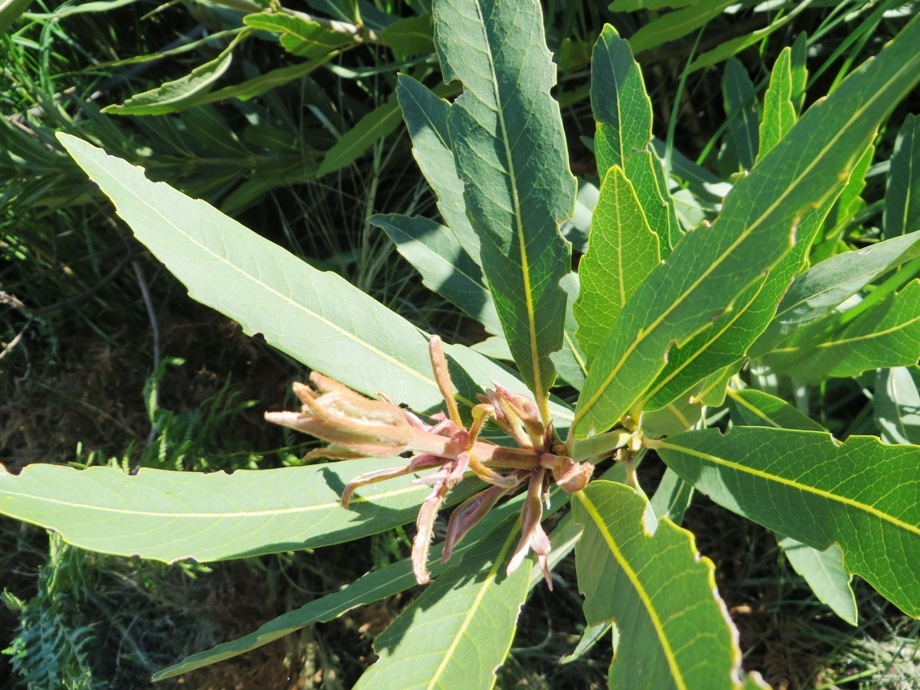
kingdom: Plantae
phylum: Tracheophyta
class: Magnoliopsida
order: Proteales
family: Proteaceae
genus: Brabejum
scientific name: Brabejum stellatifolium
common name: Wild almond
